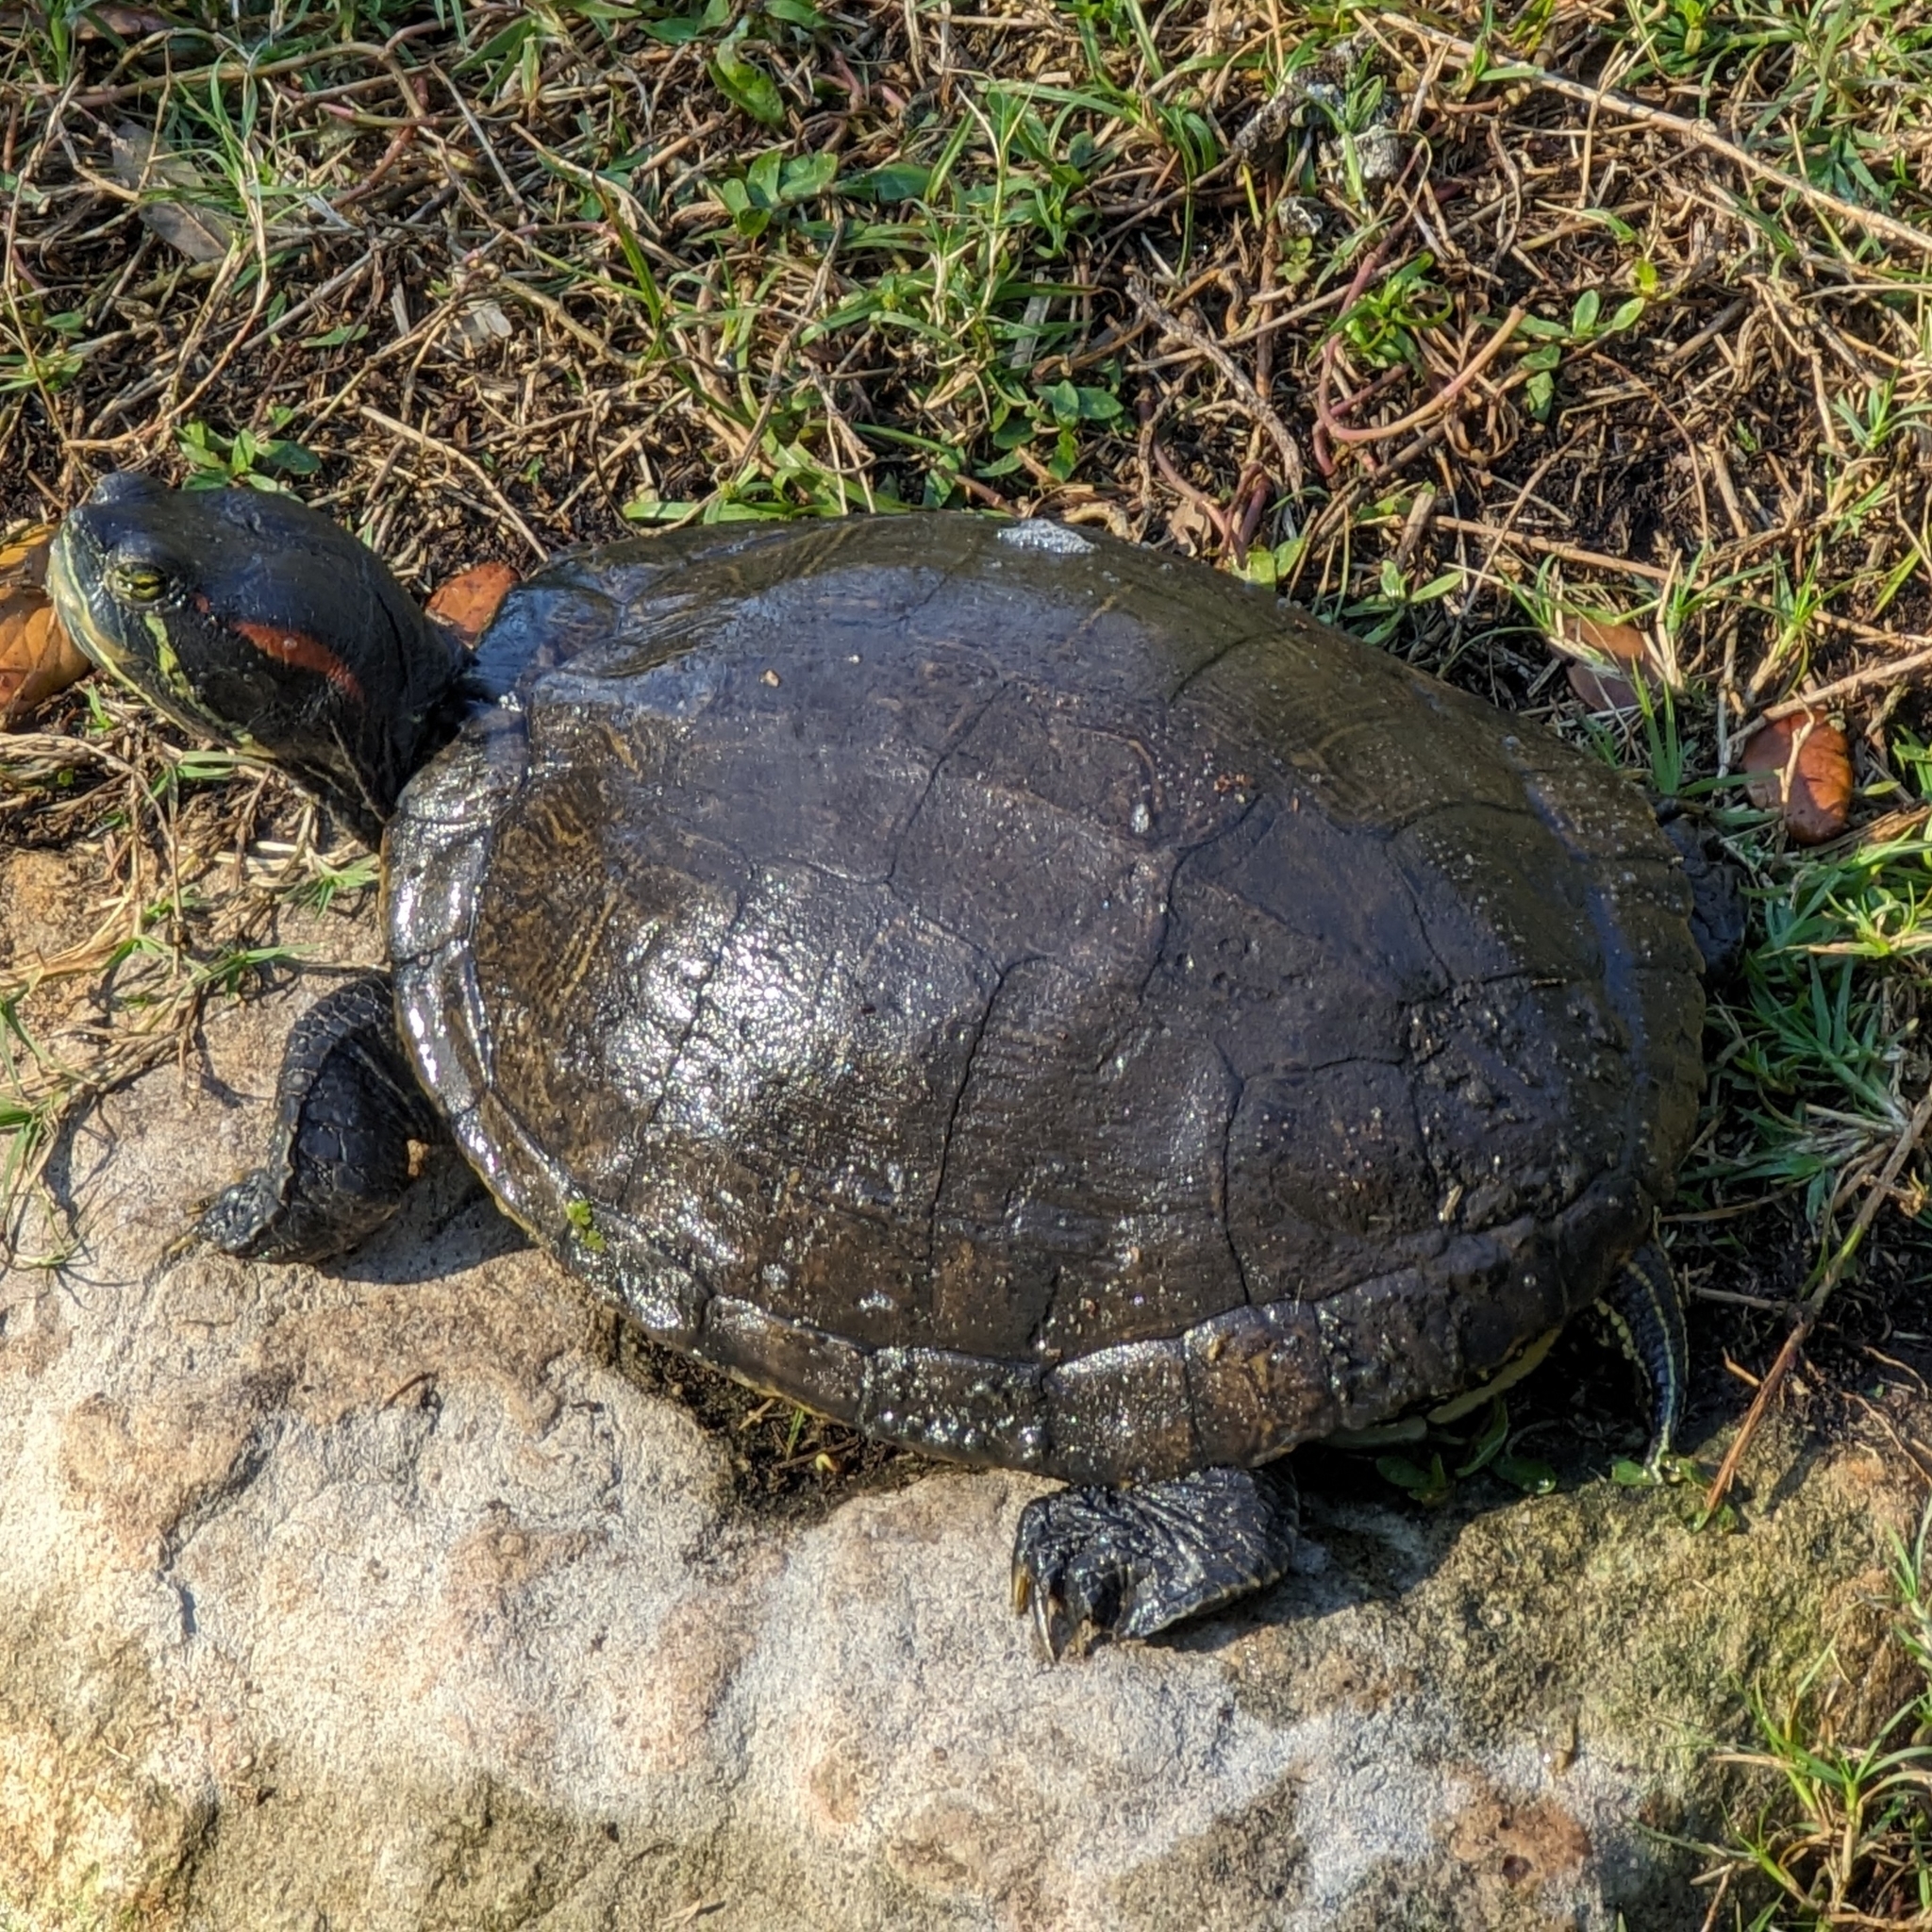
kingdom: Animalia
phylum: Chordata
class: Testudines
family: Emydidae
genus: Trachemys
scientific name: Trachemys scripta
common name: Slider
